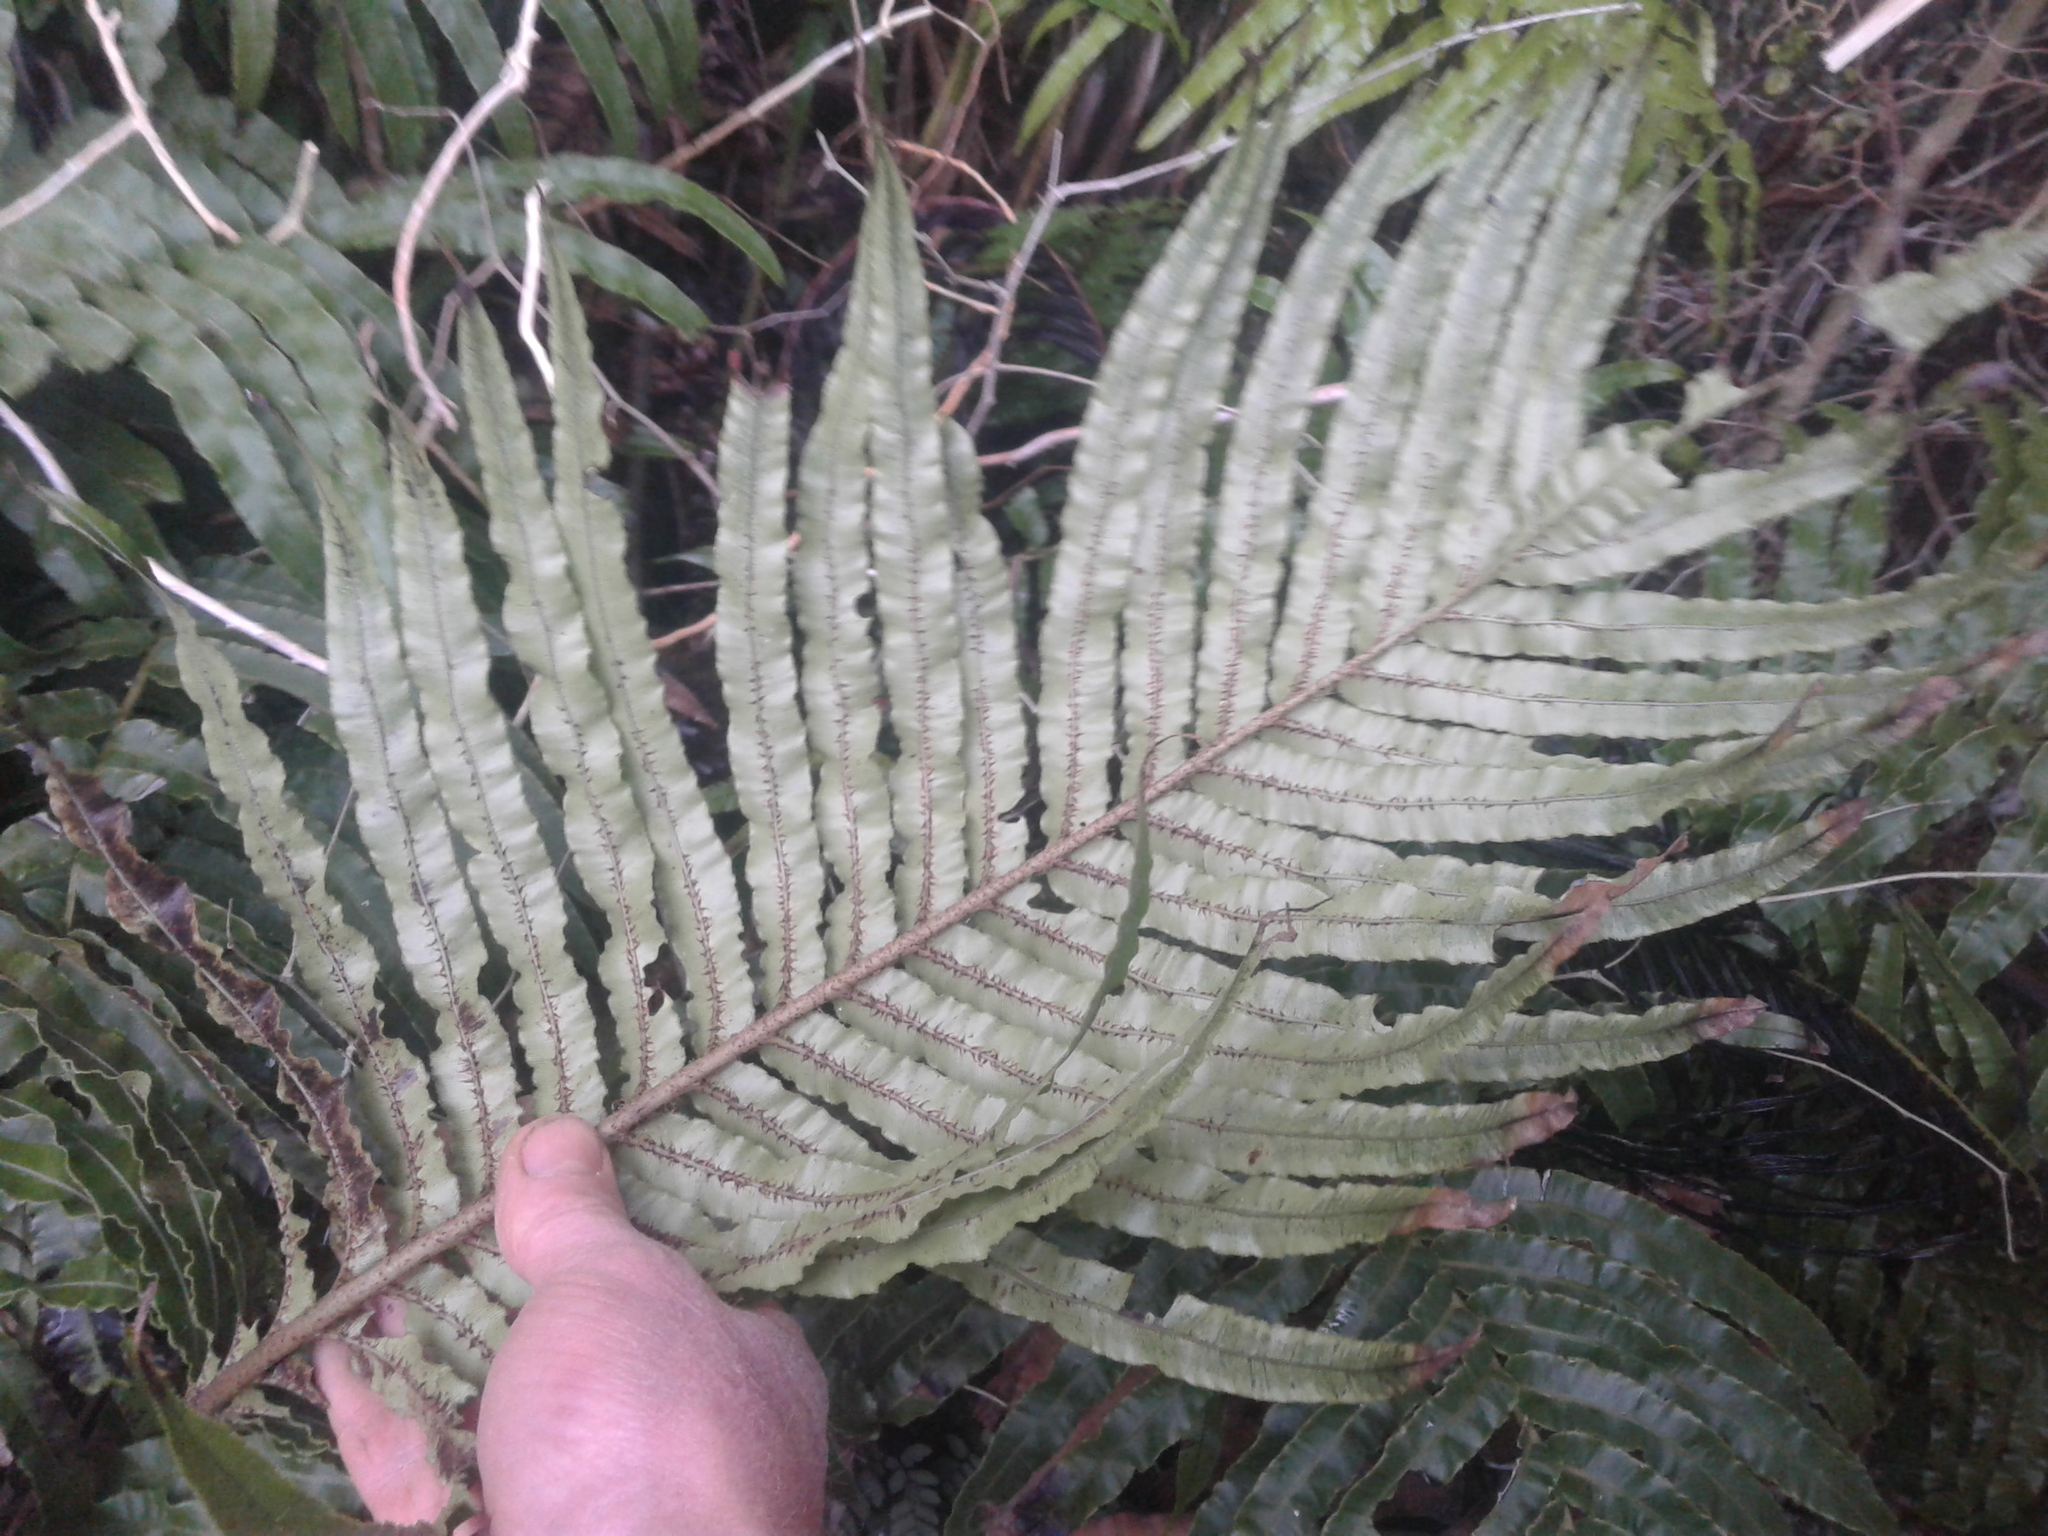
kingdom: Plantae
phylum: Tracheophyta
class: Polypodiopsida
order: Polypodiales
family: Blechnaceae
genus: Parablechnum
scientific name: Parablechnum triangularifolium
